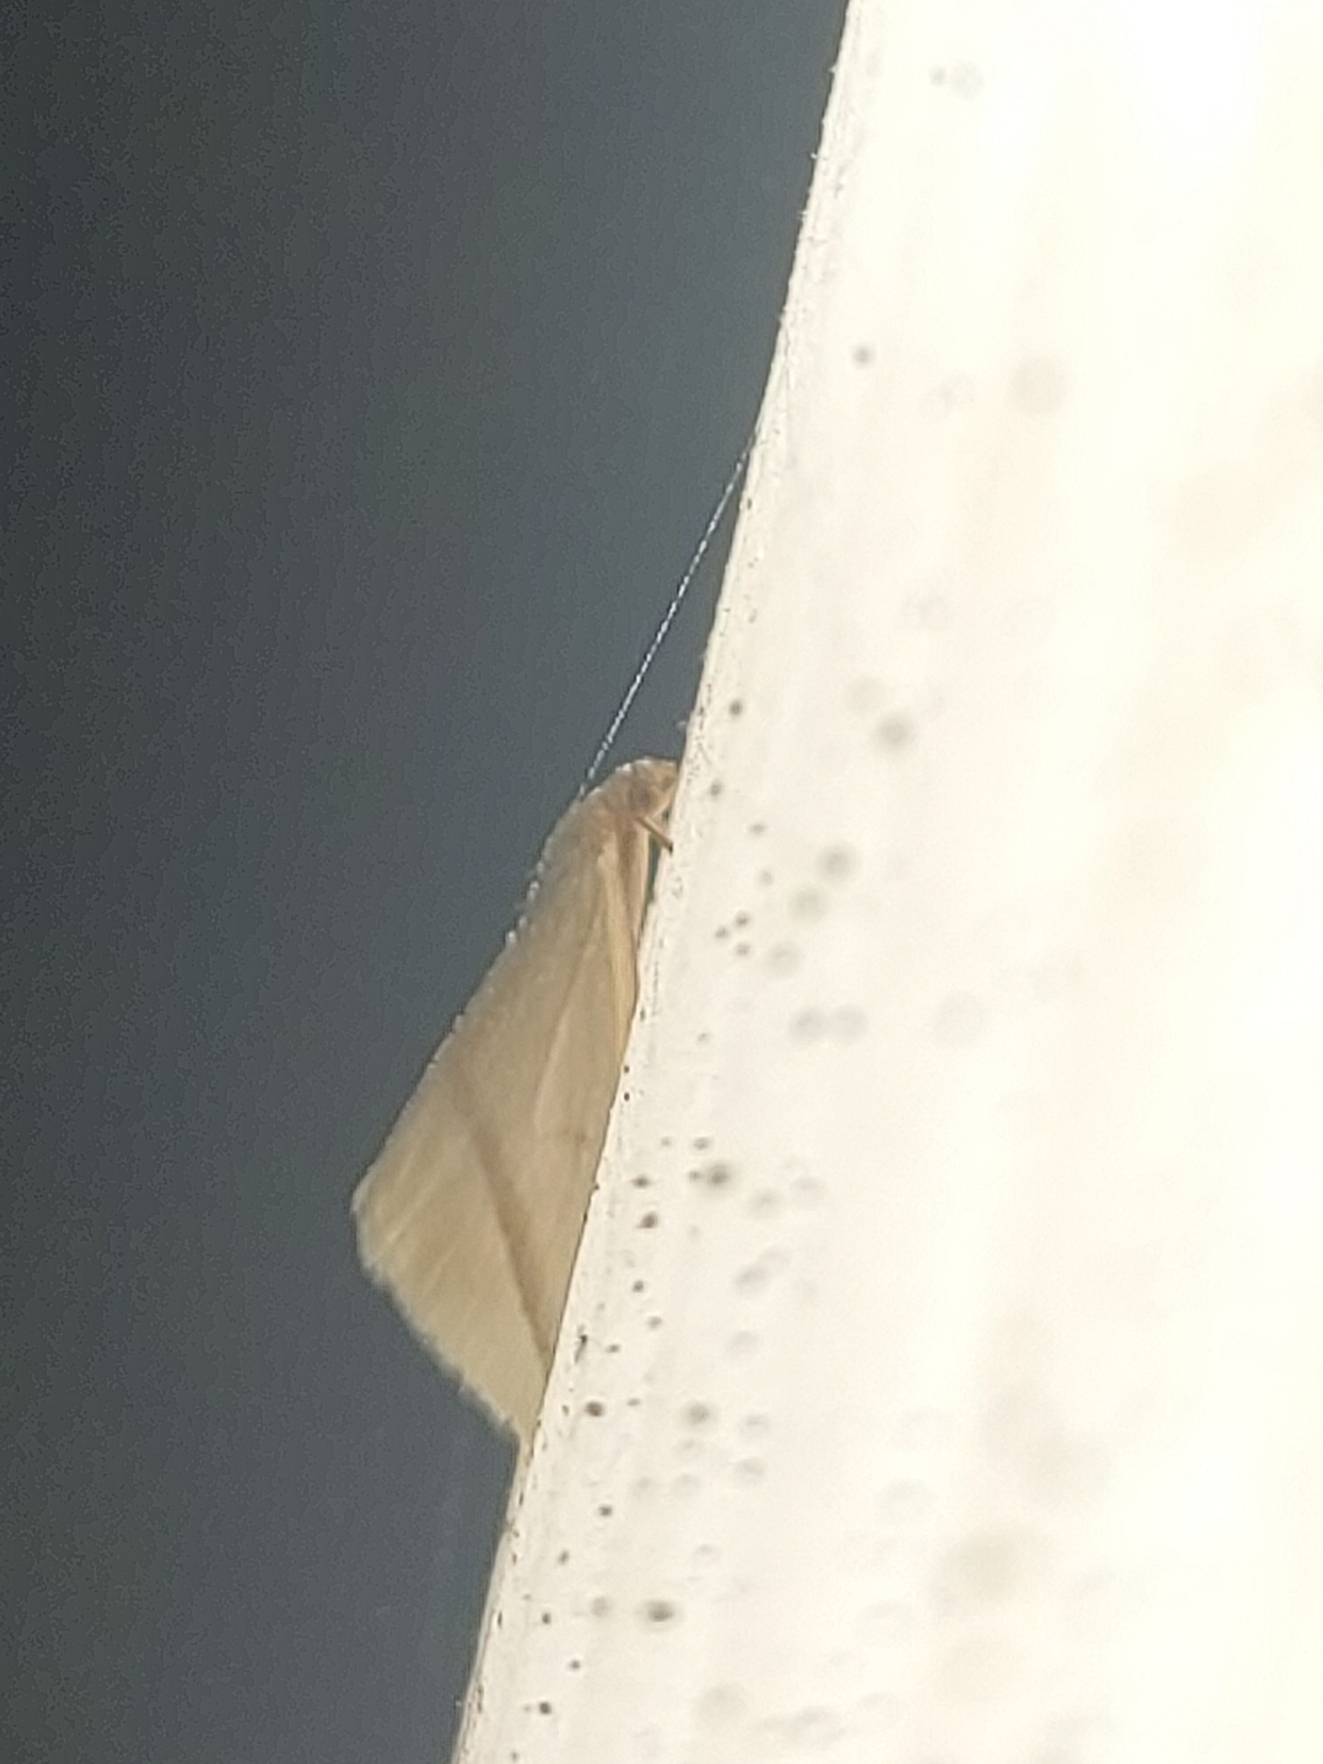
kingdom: Animalia
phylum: Arthropoda
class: Insecta
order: Lepidoptera
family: Geometridae
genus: Rhodometra
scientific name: Rhodometra sacraria
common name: Vestal
